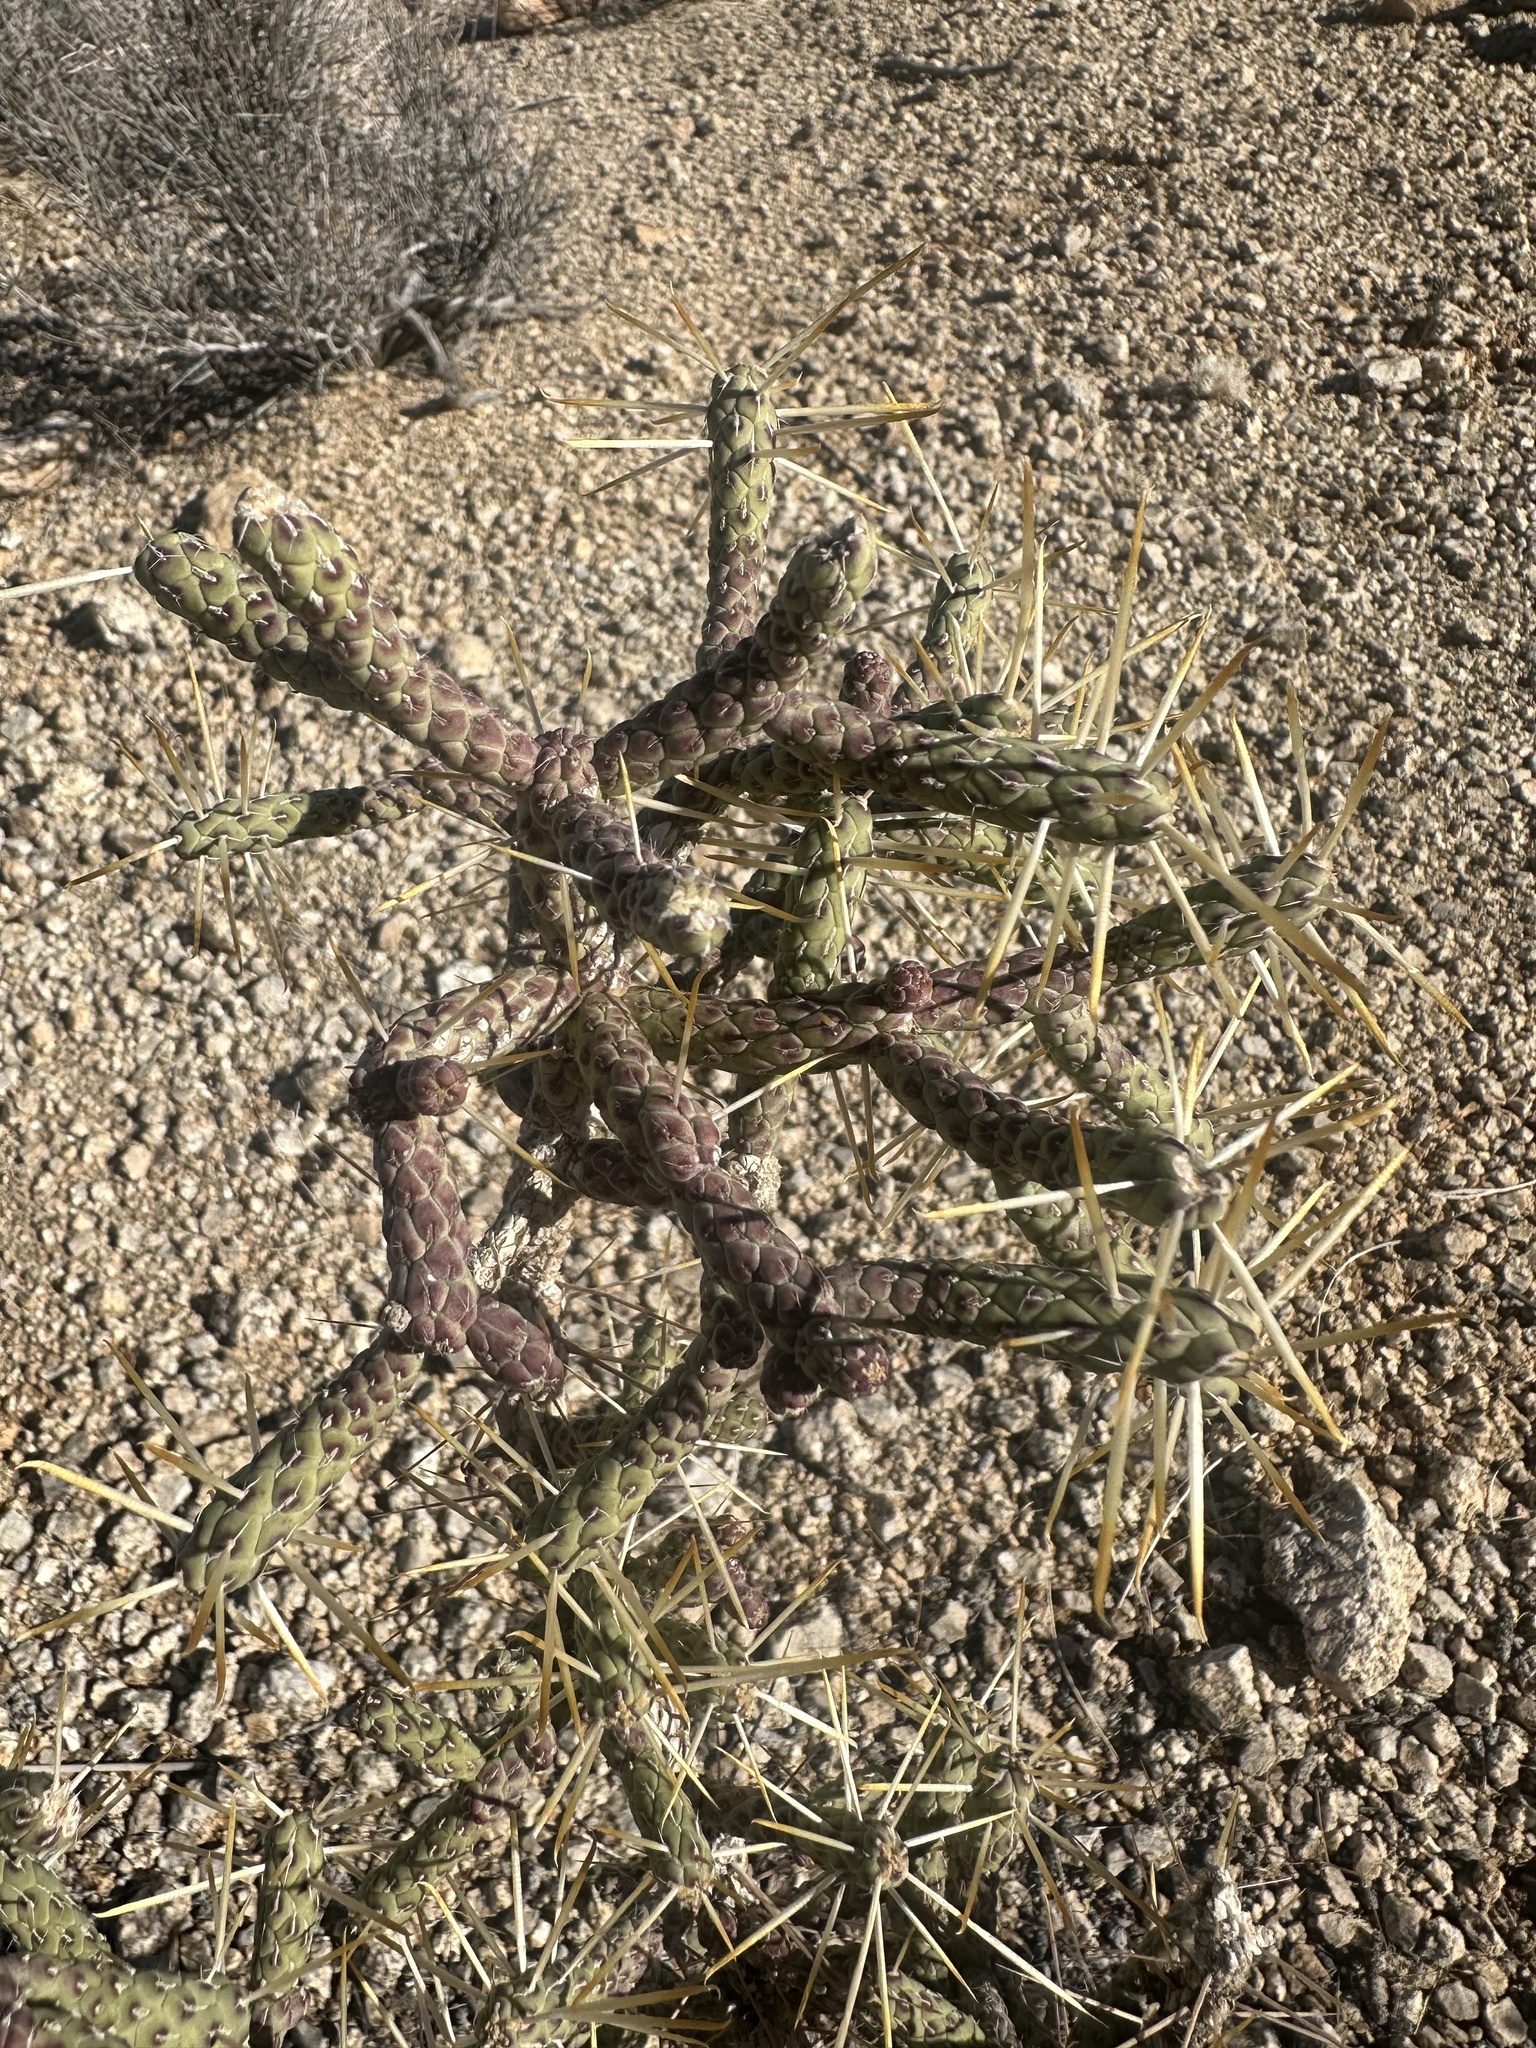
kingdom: Plantae
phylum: Tracheophyta
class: Magnoliopsida
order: Caryophyllales
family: Cactaceae
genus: Cylindropuntia
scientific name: Cylindropuntia ramosissima
